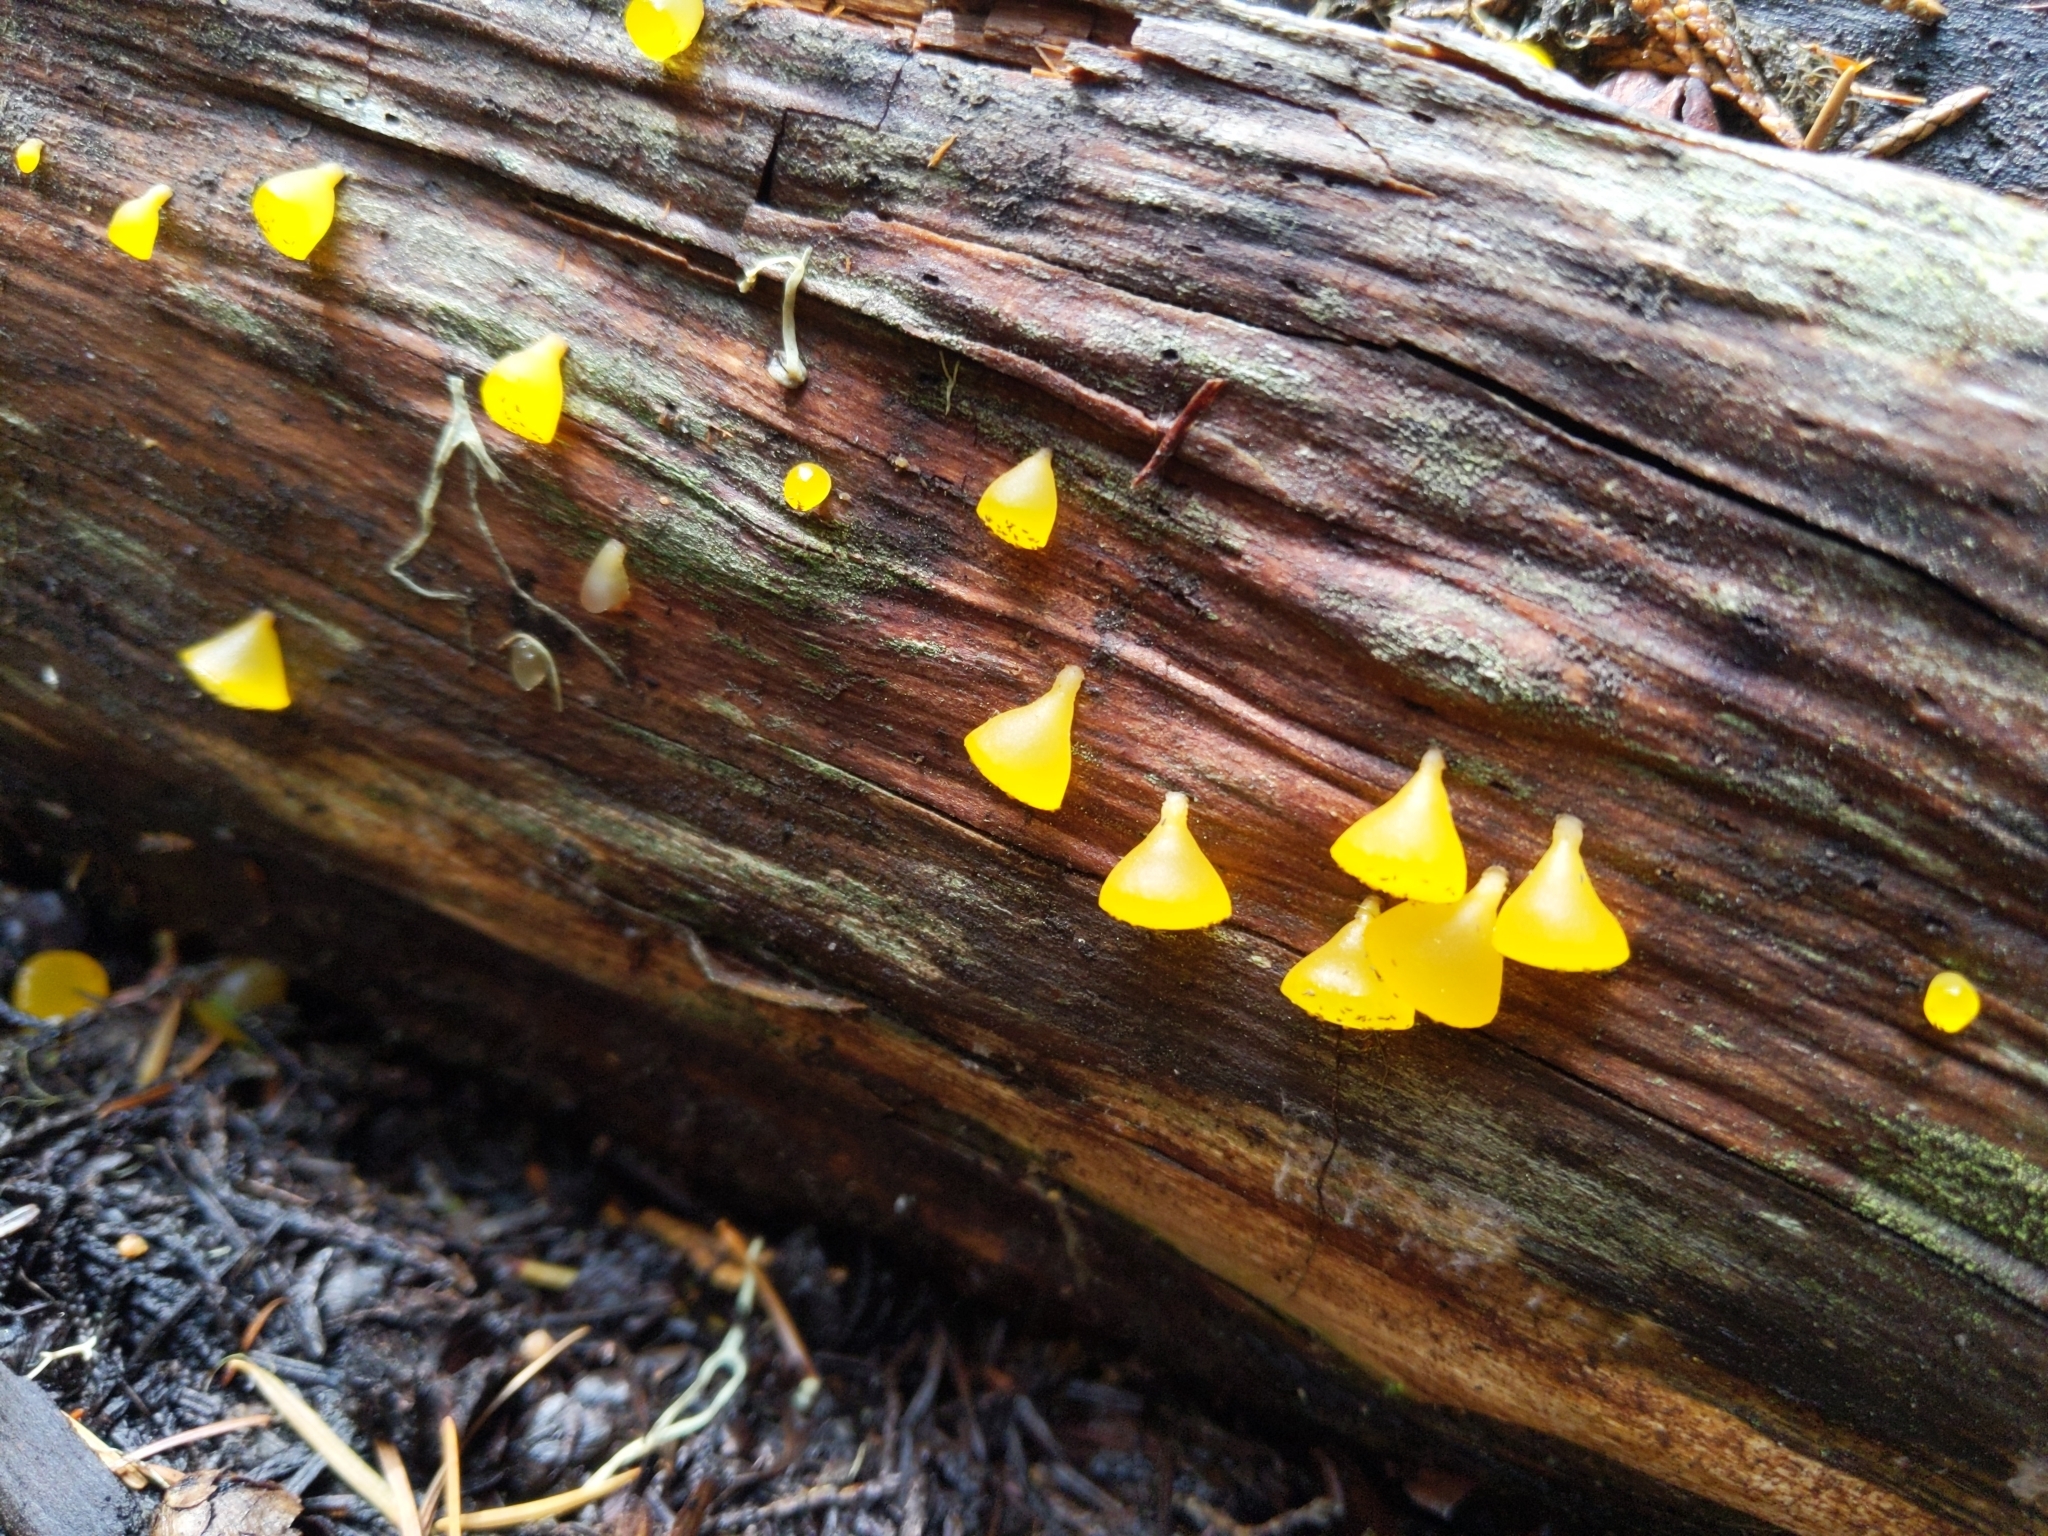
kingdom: Fungi
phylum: Basidiomycota
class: Dacrymycetes
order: Dacrymycetales
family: Dacrymycetaceae
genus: Guepiniopsis
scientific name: Guepiniopsis alpina
